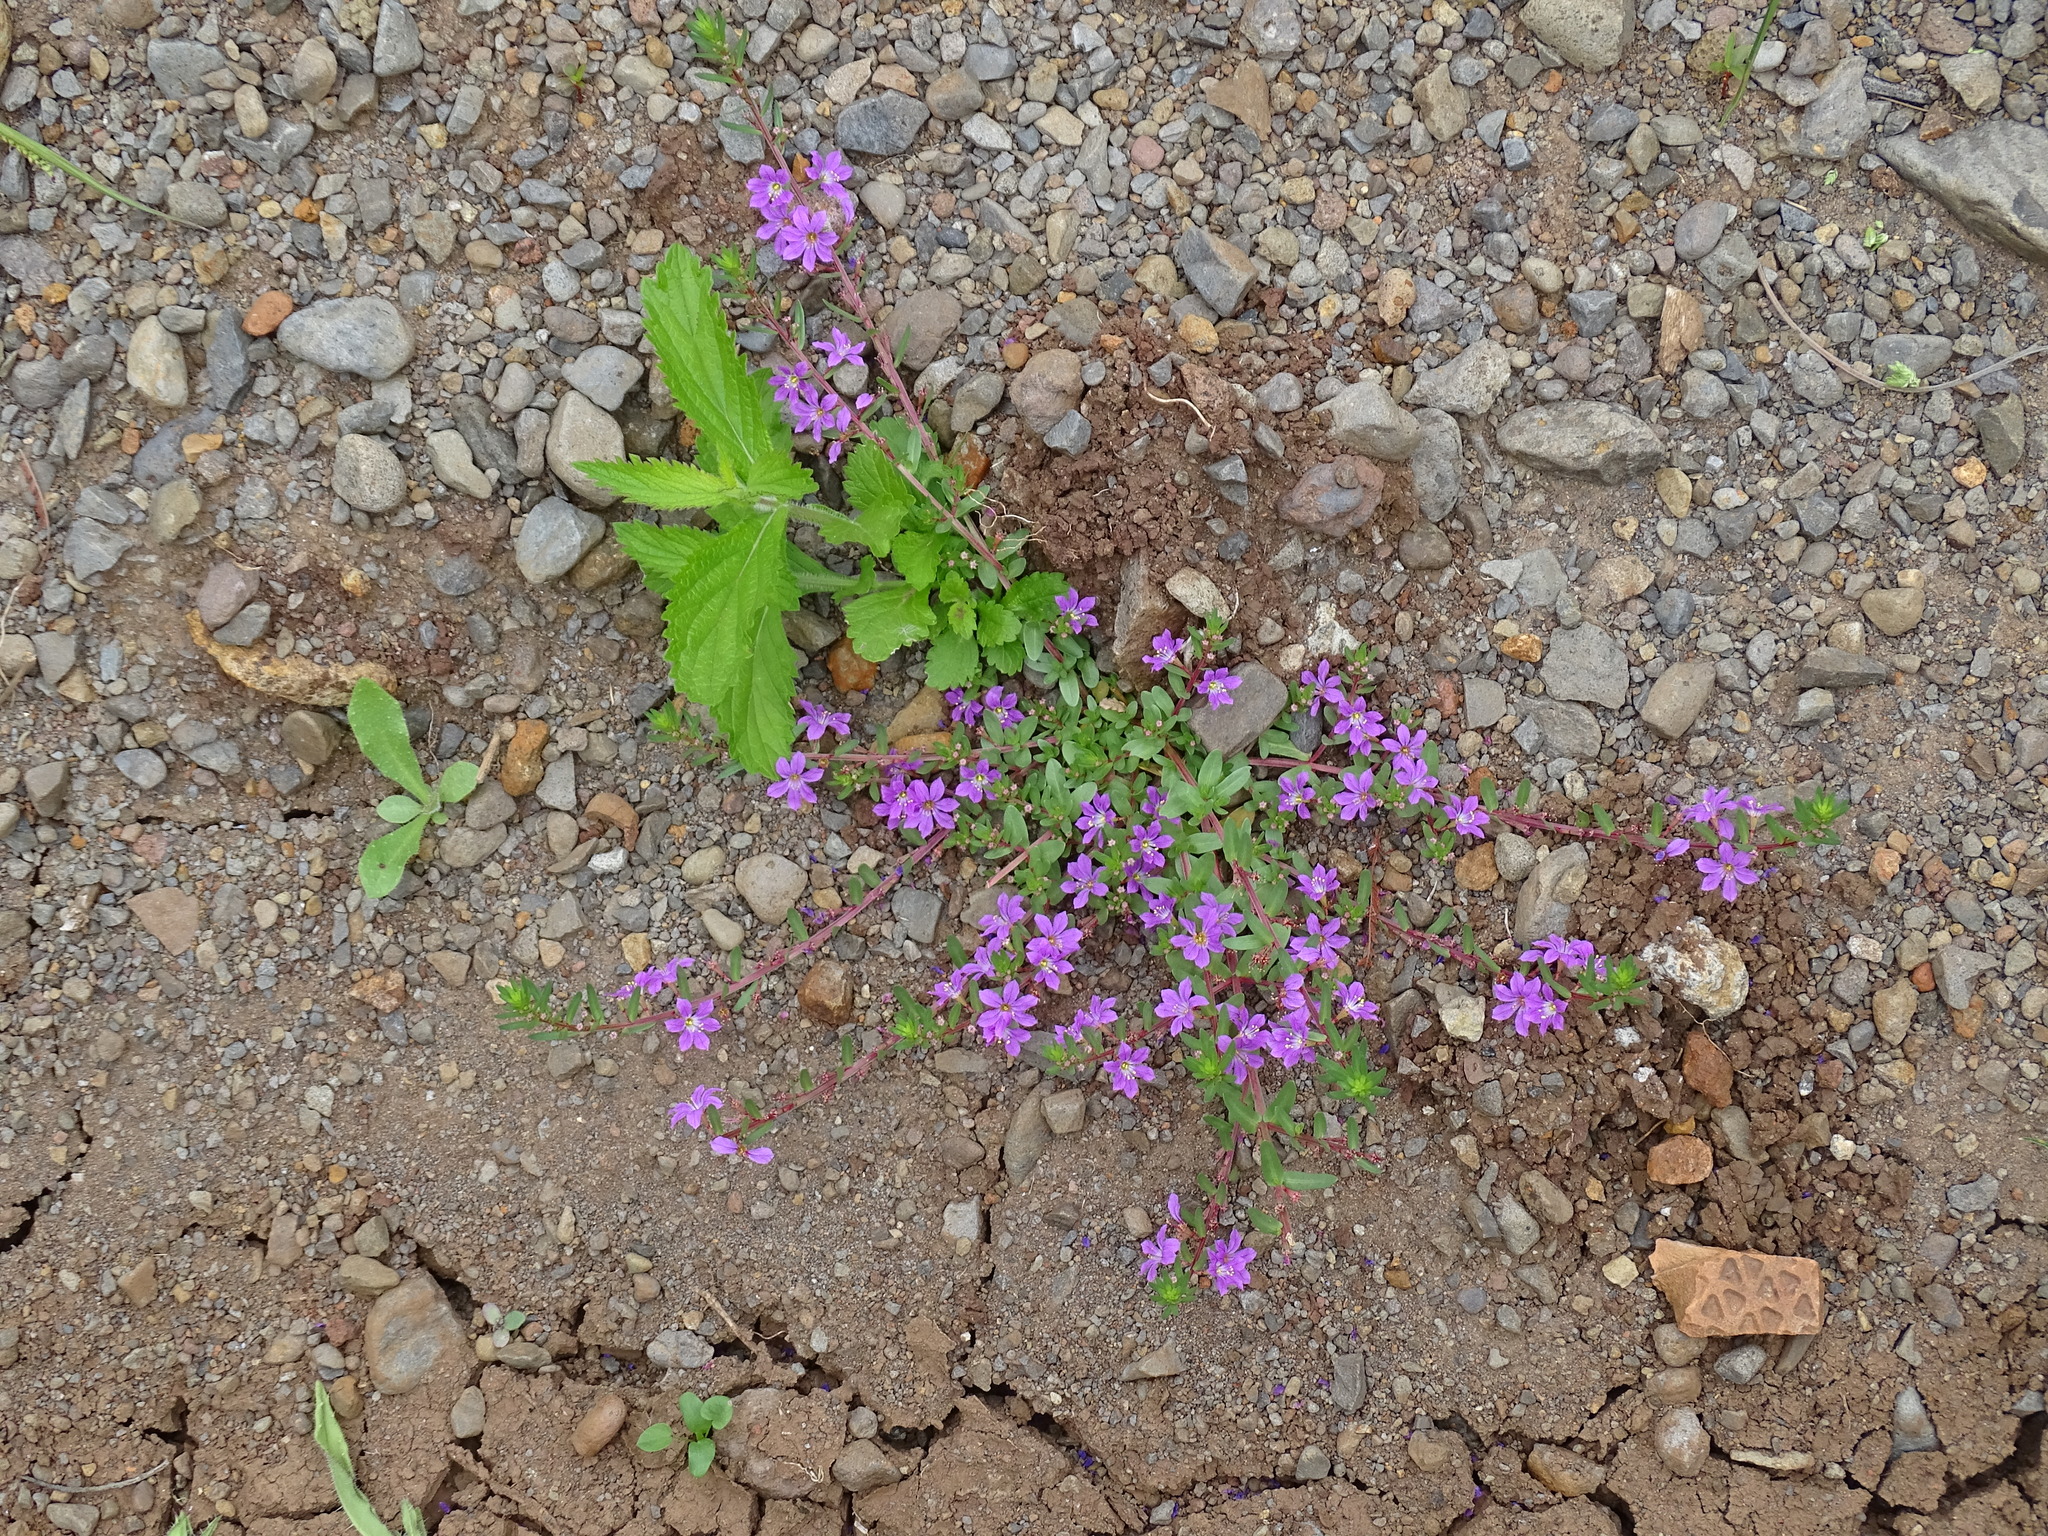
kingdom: Plantae
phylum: Tracheophyta
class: Magnoliopsida
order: Myrtales
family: Lythraceae
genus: Lythrum
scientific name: Lythrum junceum
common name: False grass-poly
